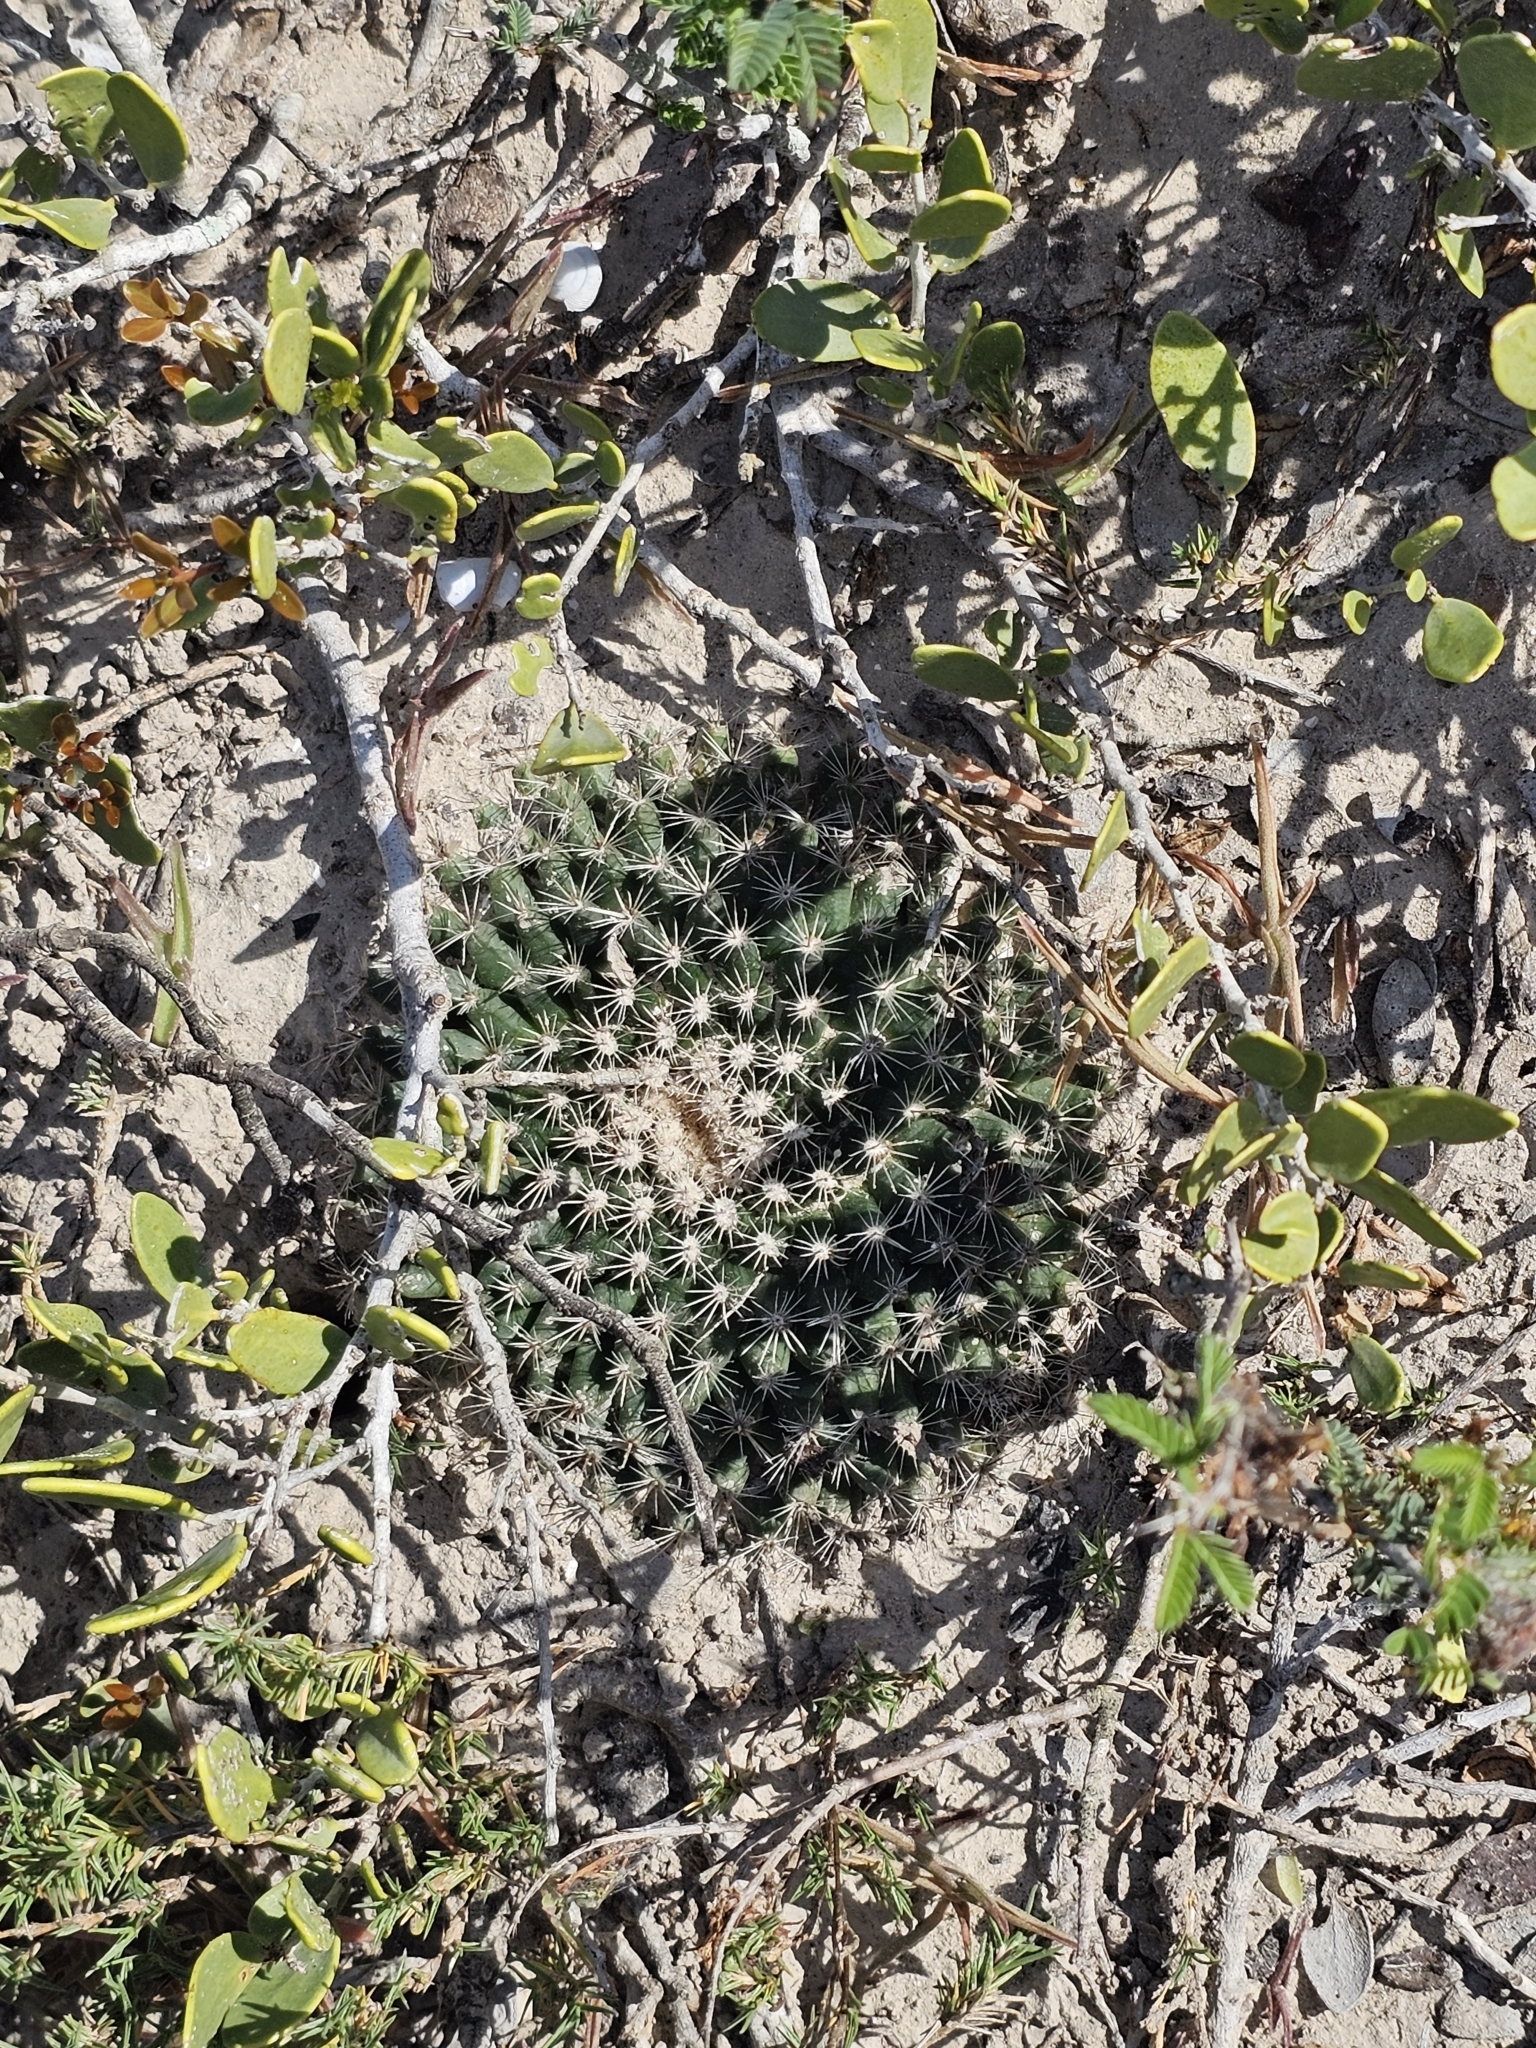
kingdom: Plantae
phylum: Tracheophyta
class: Magnoliopsida
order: Caryophyllales
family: Cactaceae
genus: Mammillaria
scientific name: Mammillaria heyderi
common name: Little nipple cactus
